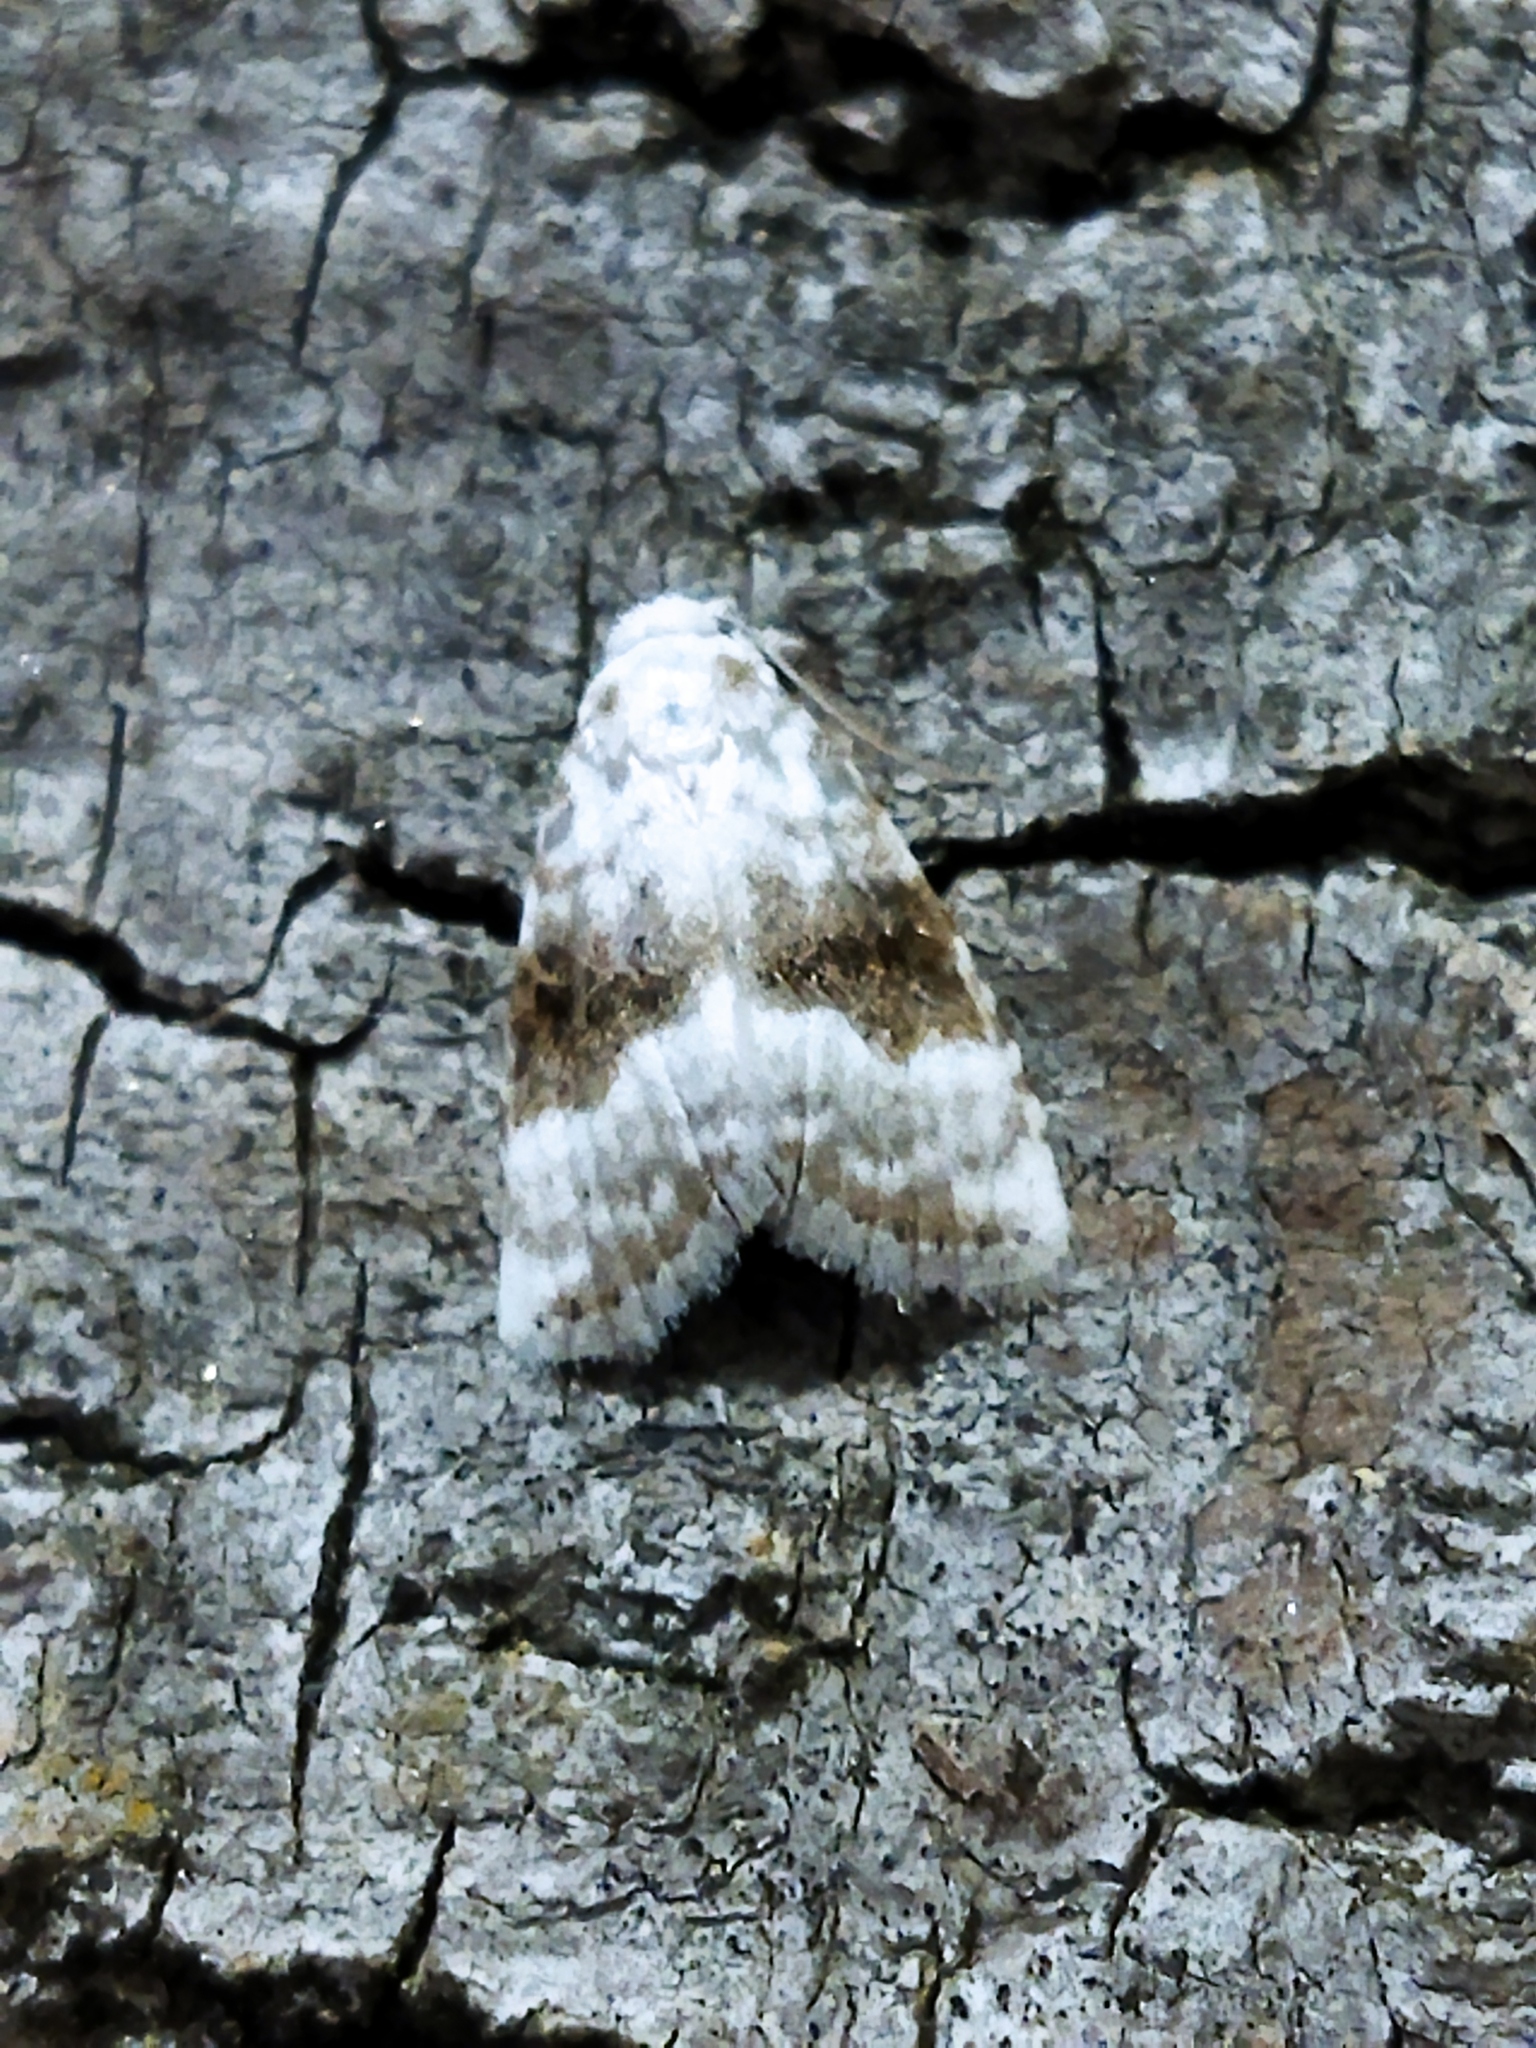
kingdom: Animalia
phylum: Arthropoda
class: Insecta
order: Lepidoptera
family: Nolidae
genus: Meganola
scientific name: Meganola albula
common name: Kent black arches
